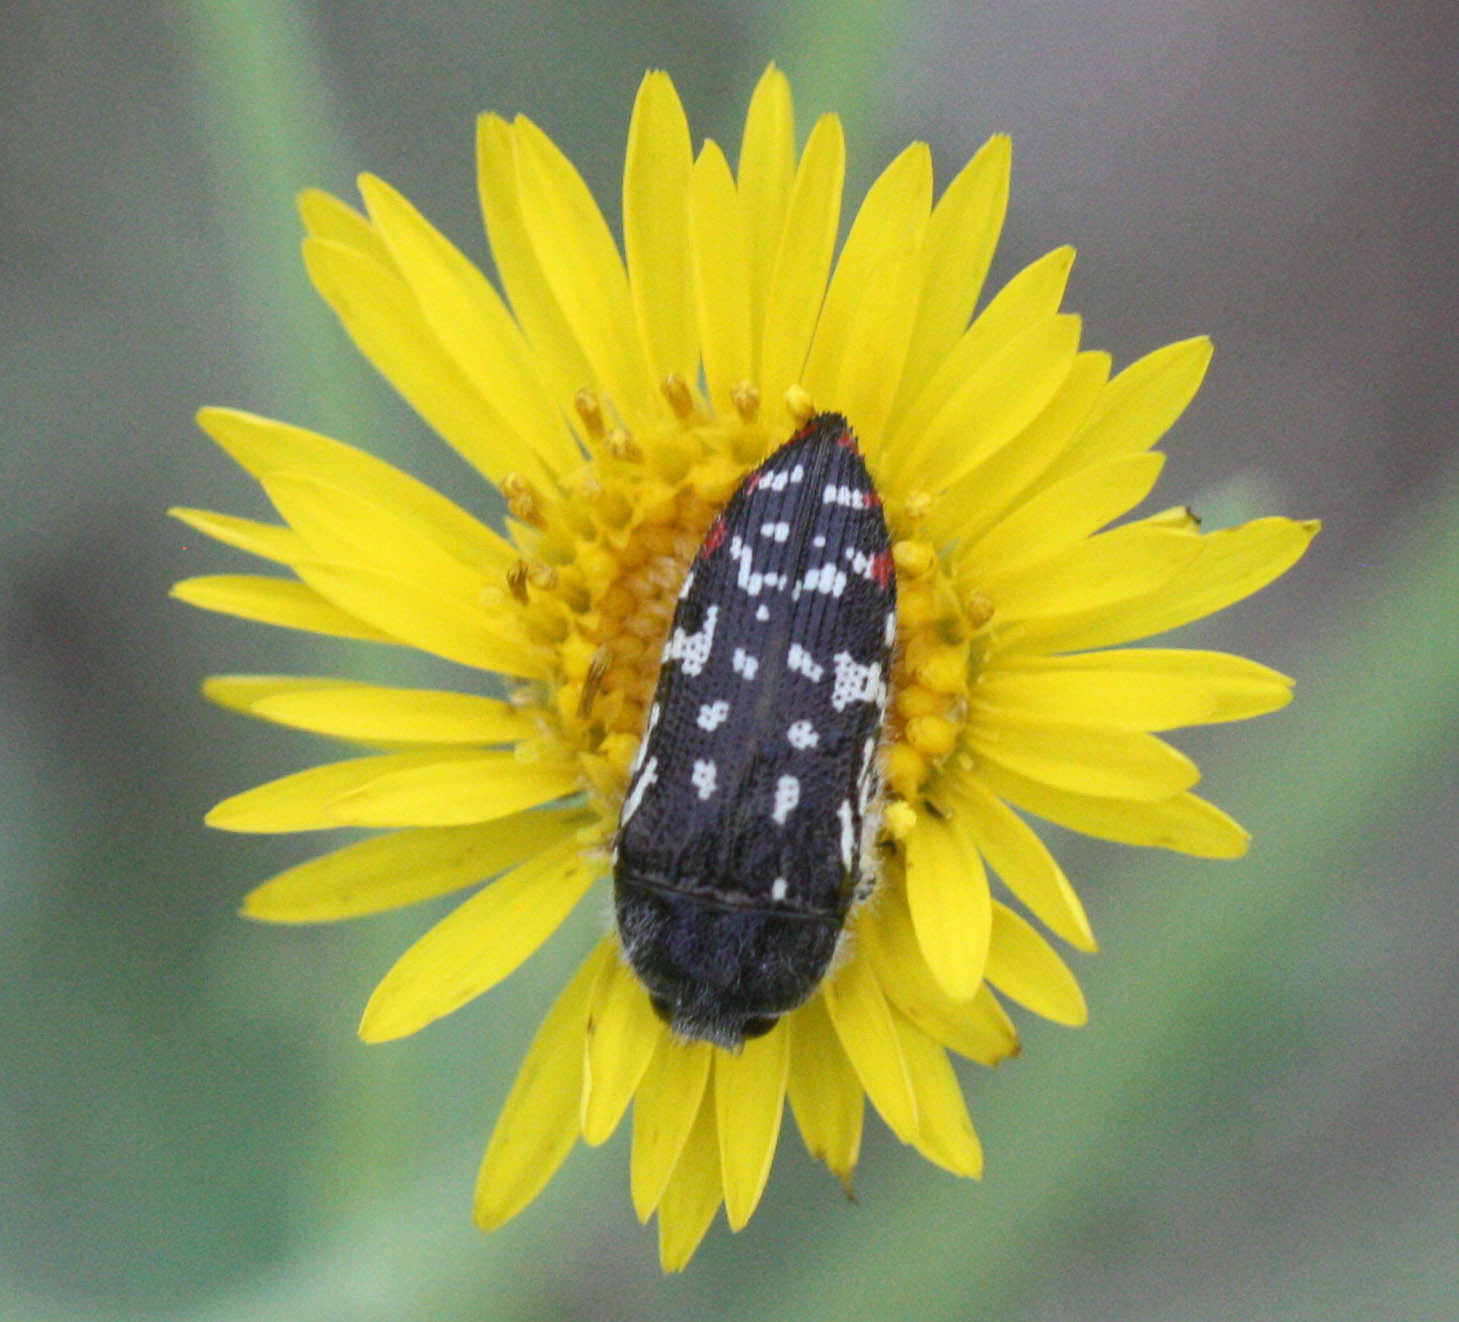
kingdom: Animalia
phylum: Arthropoda
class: Insecta
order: Coleoptera
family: Buprestidae
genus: Acmaeodera
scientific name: Acmaeodera rubronotata
